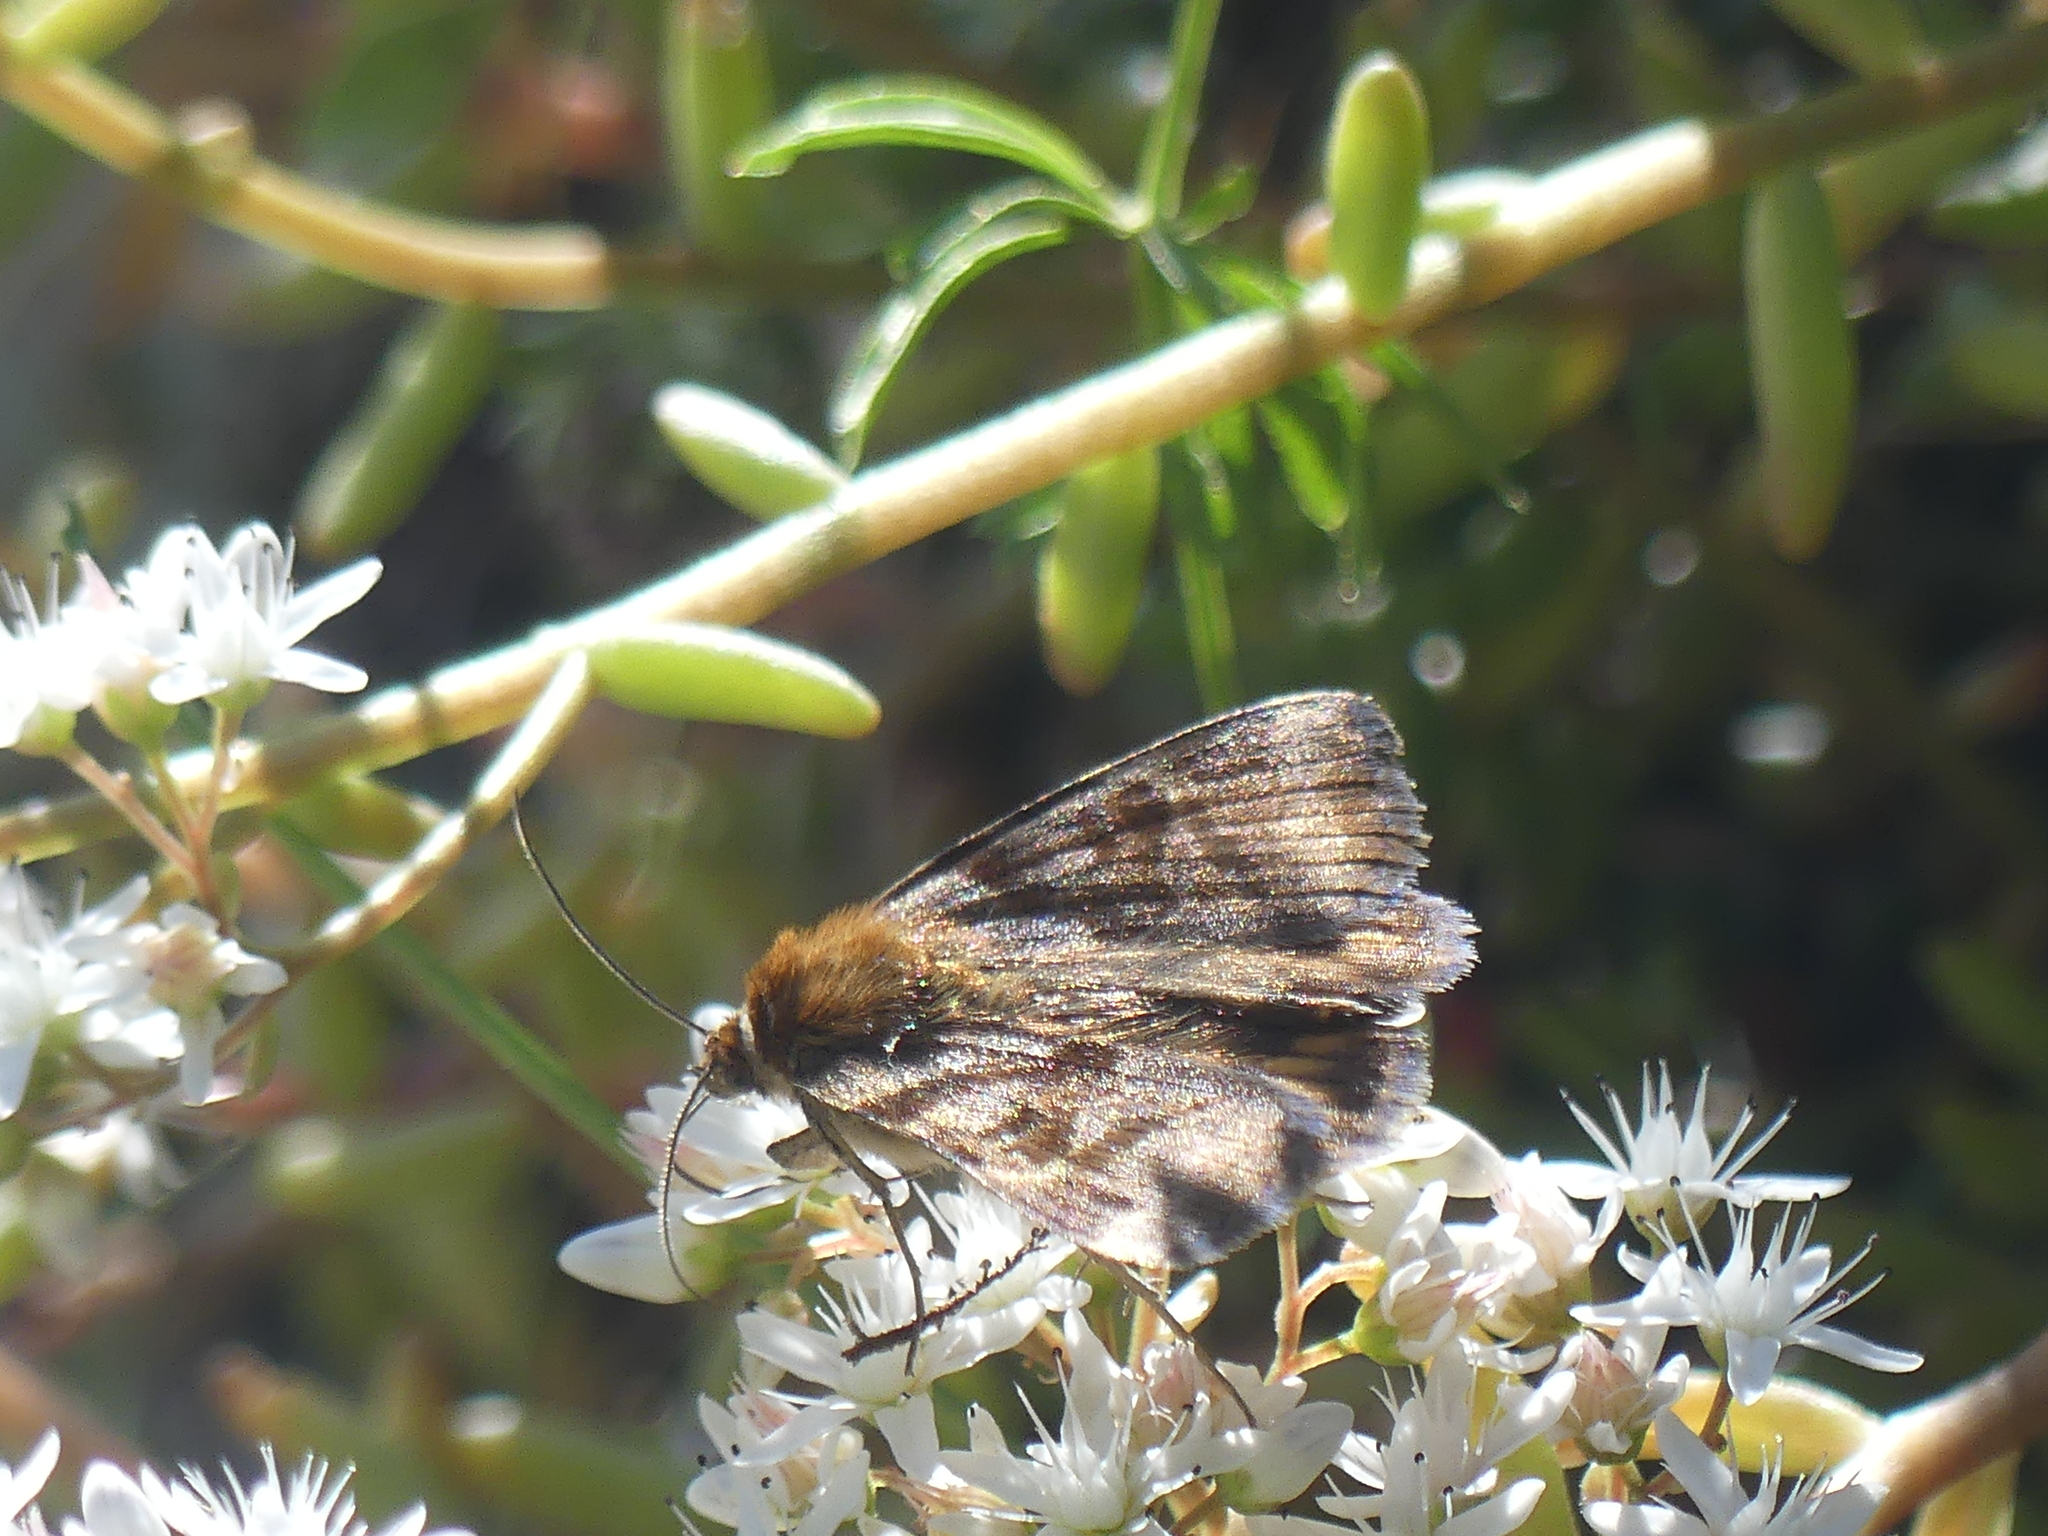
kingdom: Animalia
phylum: Arthropoda
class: Insecta
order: Lepidoptera
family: Erebidae
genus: Euclidia
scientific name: Euclidia glyphica
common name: Burnet companion
